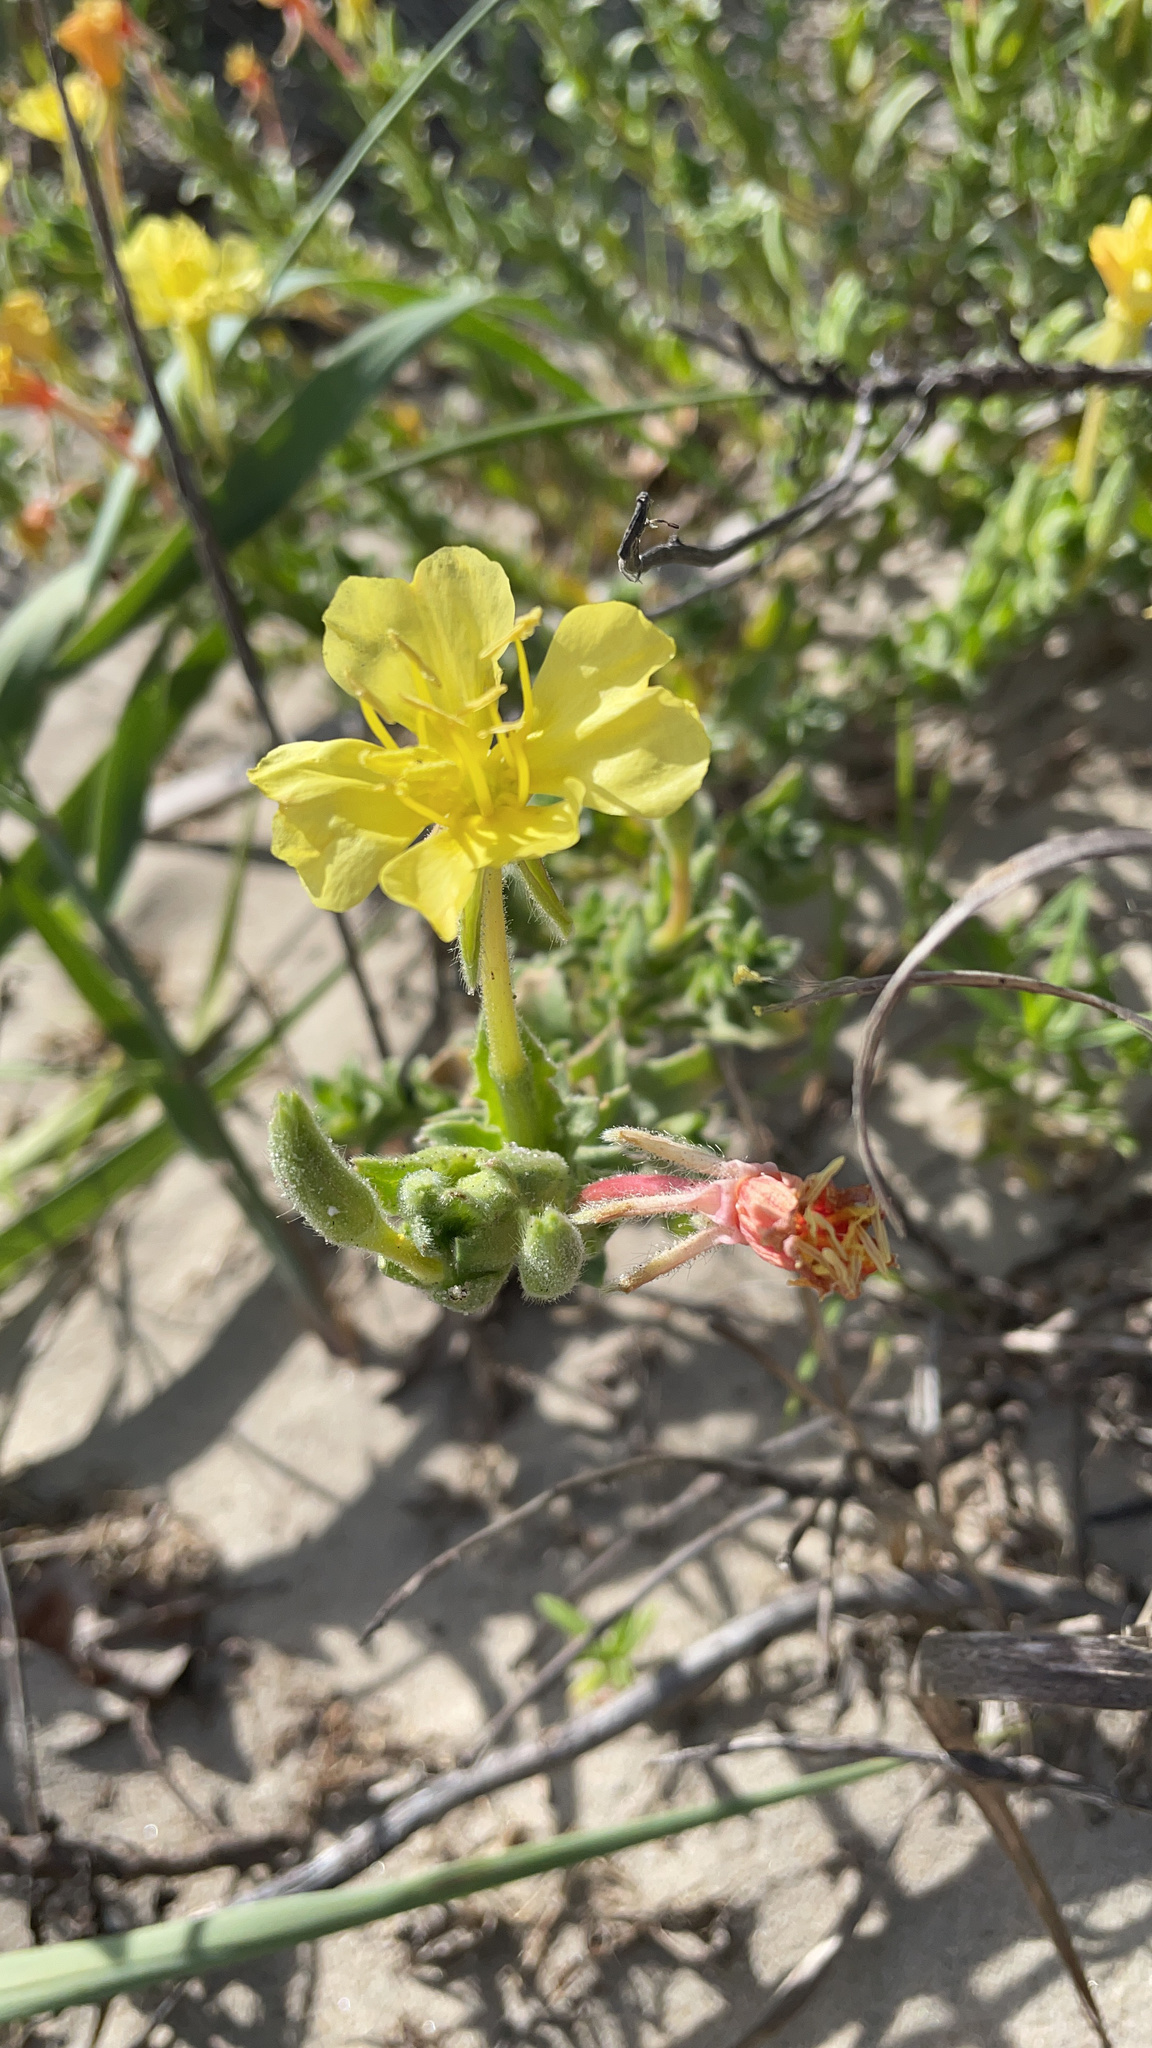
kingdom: Plantae
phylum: Tracheophyta
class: Magnoliopsida
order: Myrtales
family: Onagraceae
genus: Oenothera
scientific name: Oenothera humifusa
